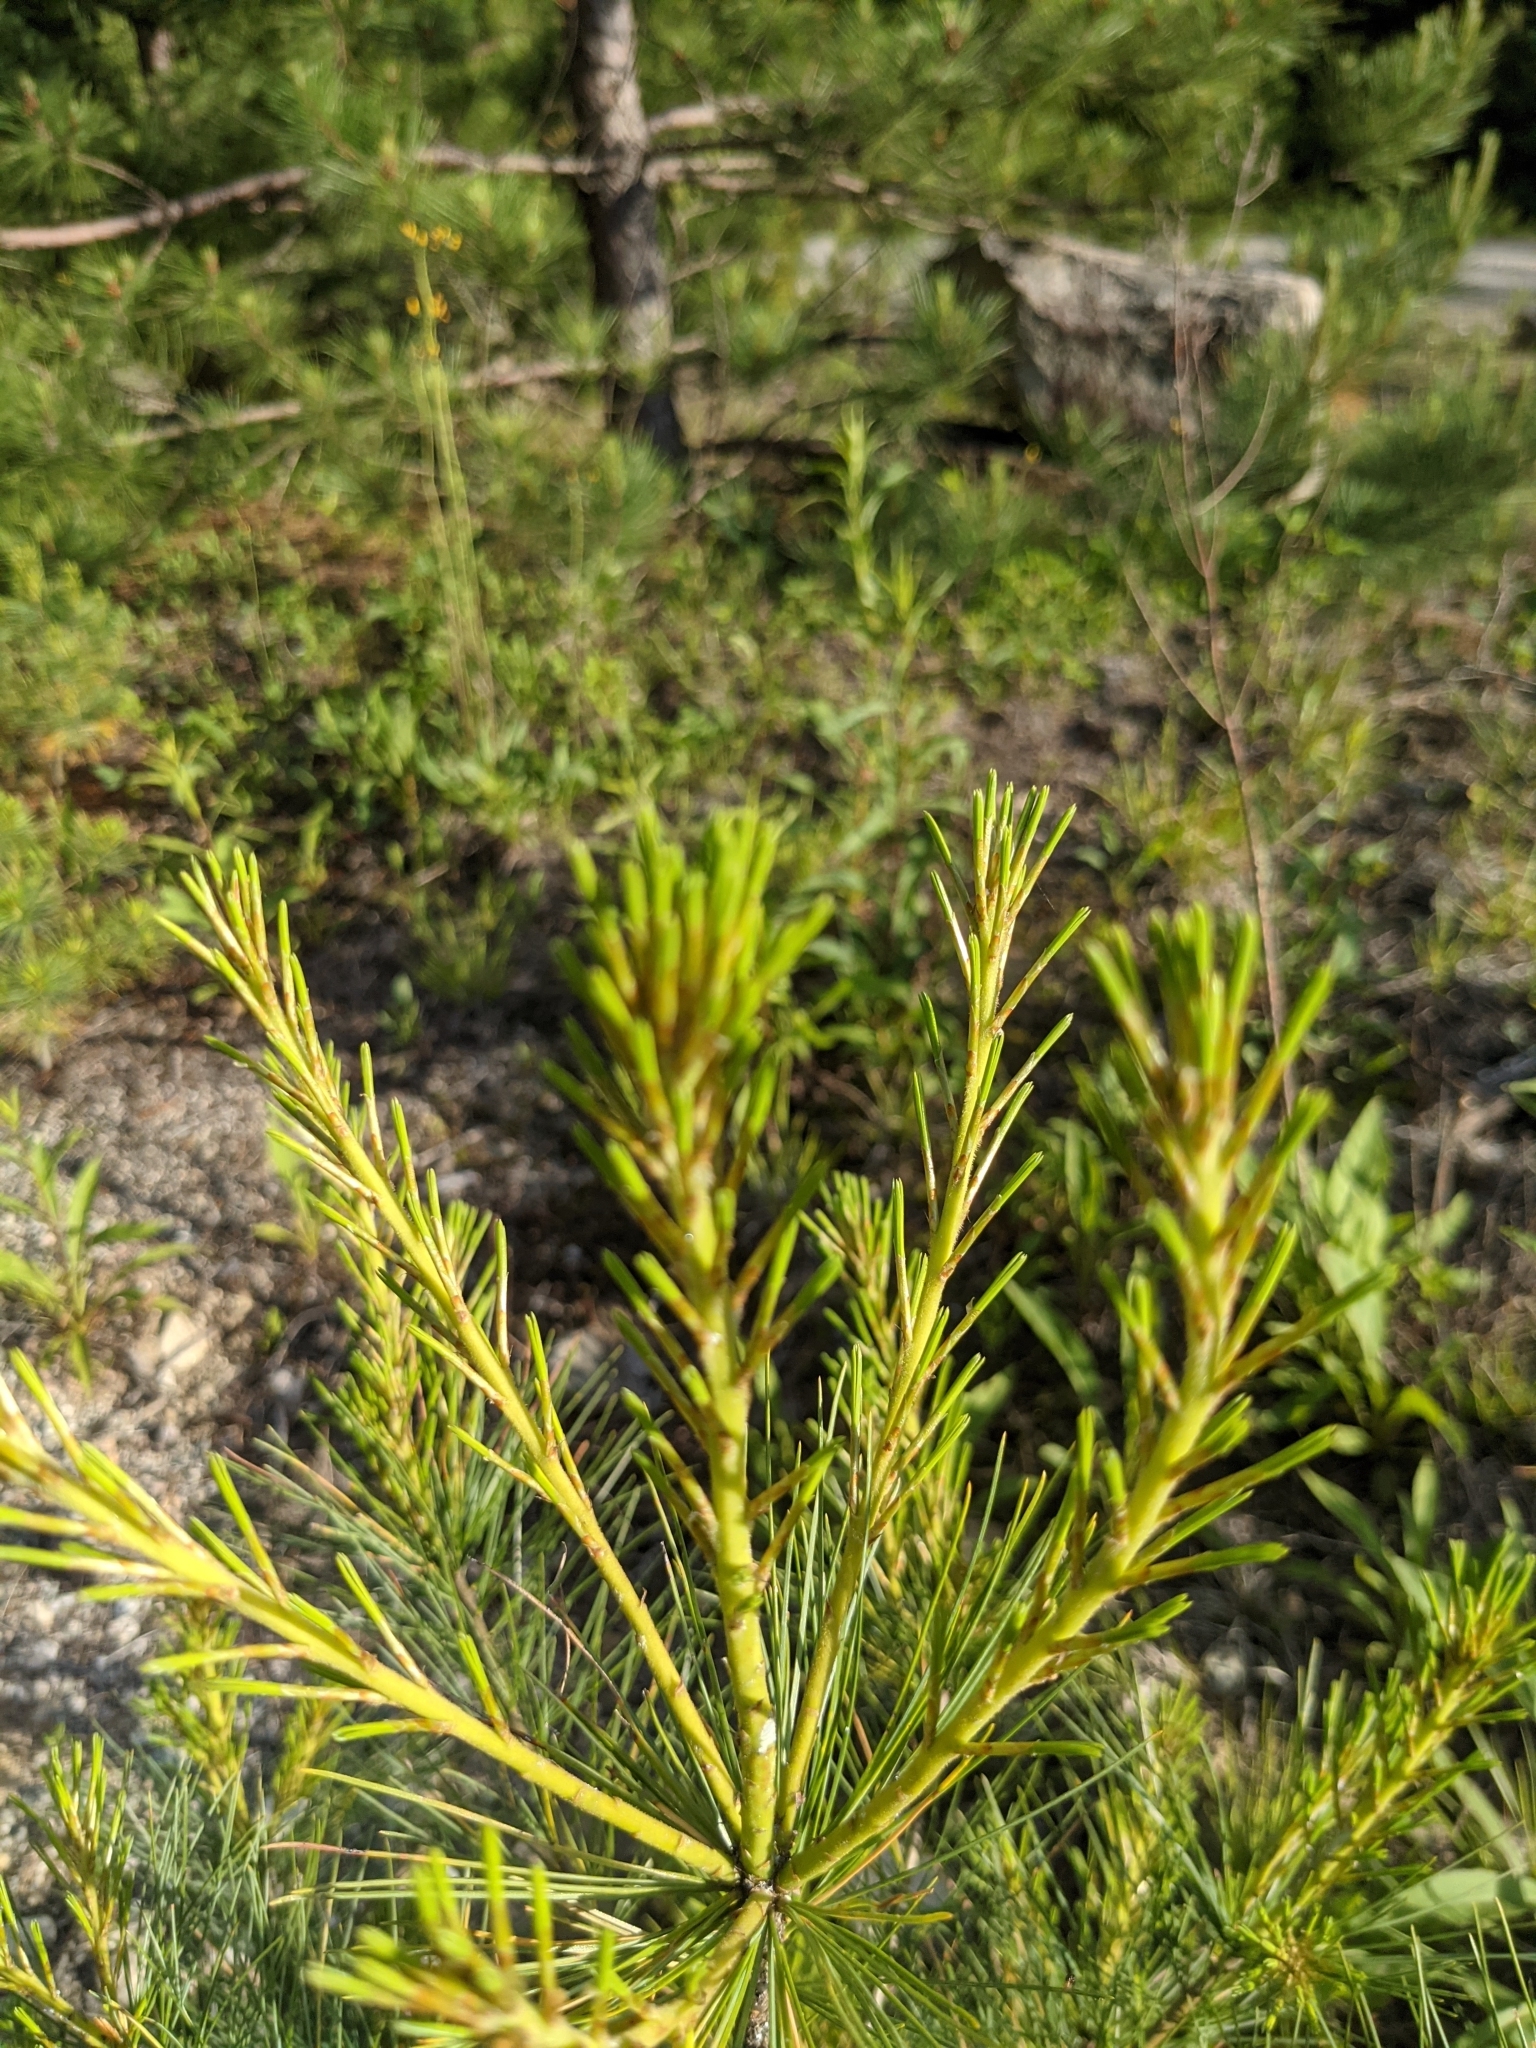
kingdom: Plantae
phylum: Tracheophyta
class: Pinopsida
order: Pinales
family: Pinaceae
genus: Pinus
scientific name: Pinus strobus
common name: Weymouth pine
